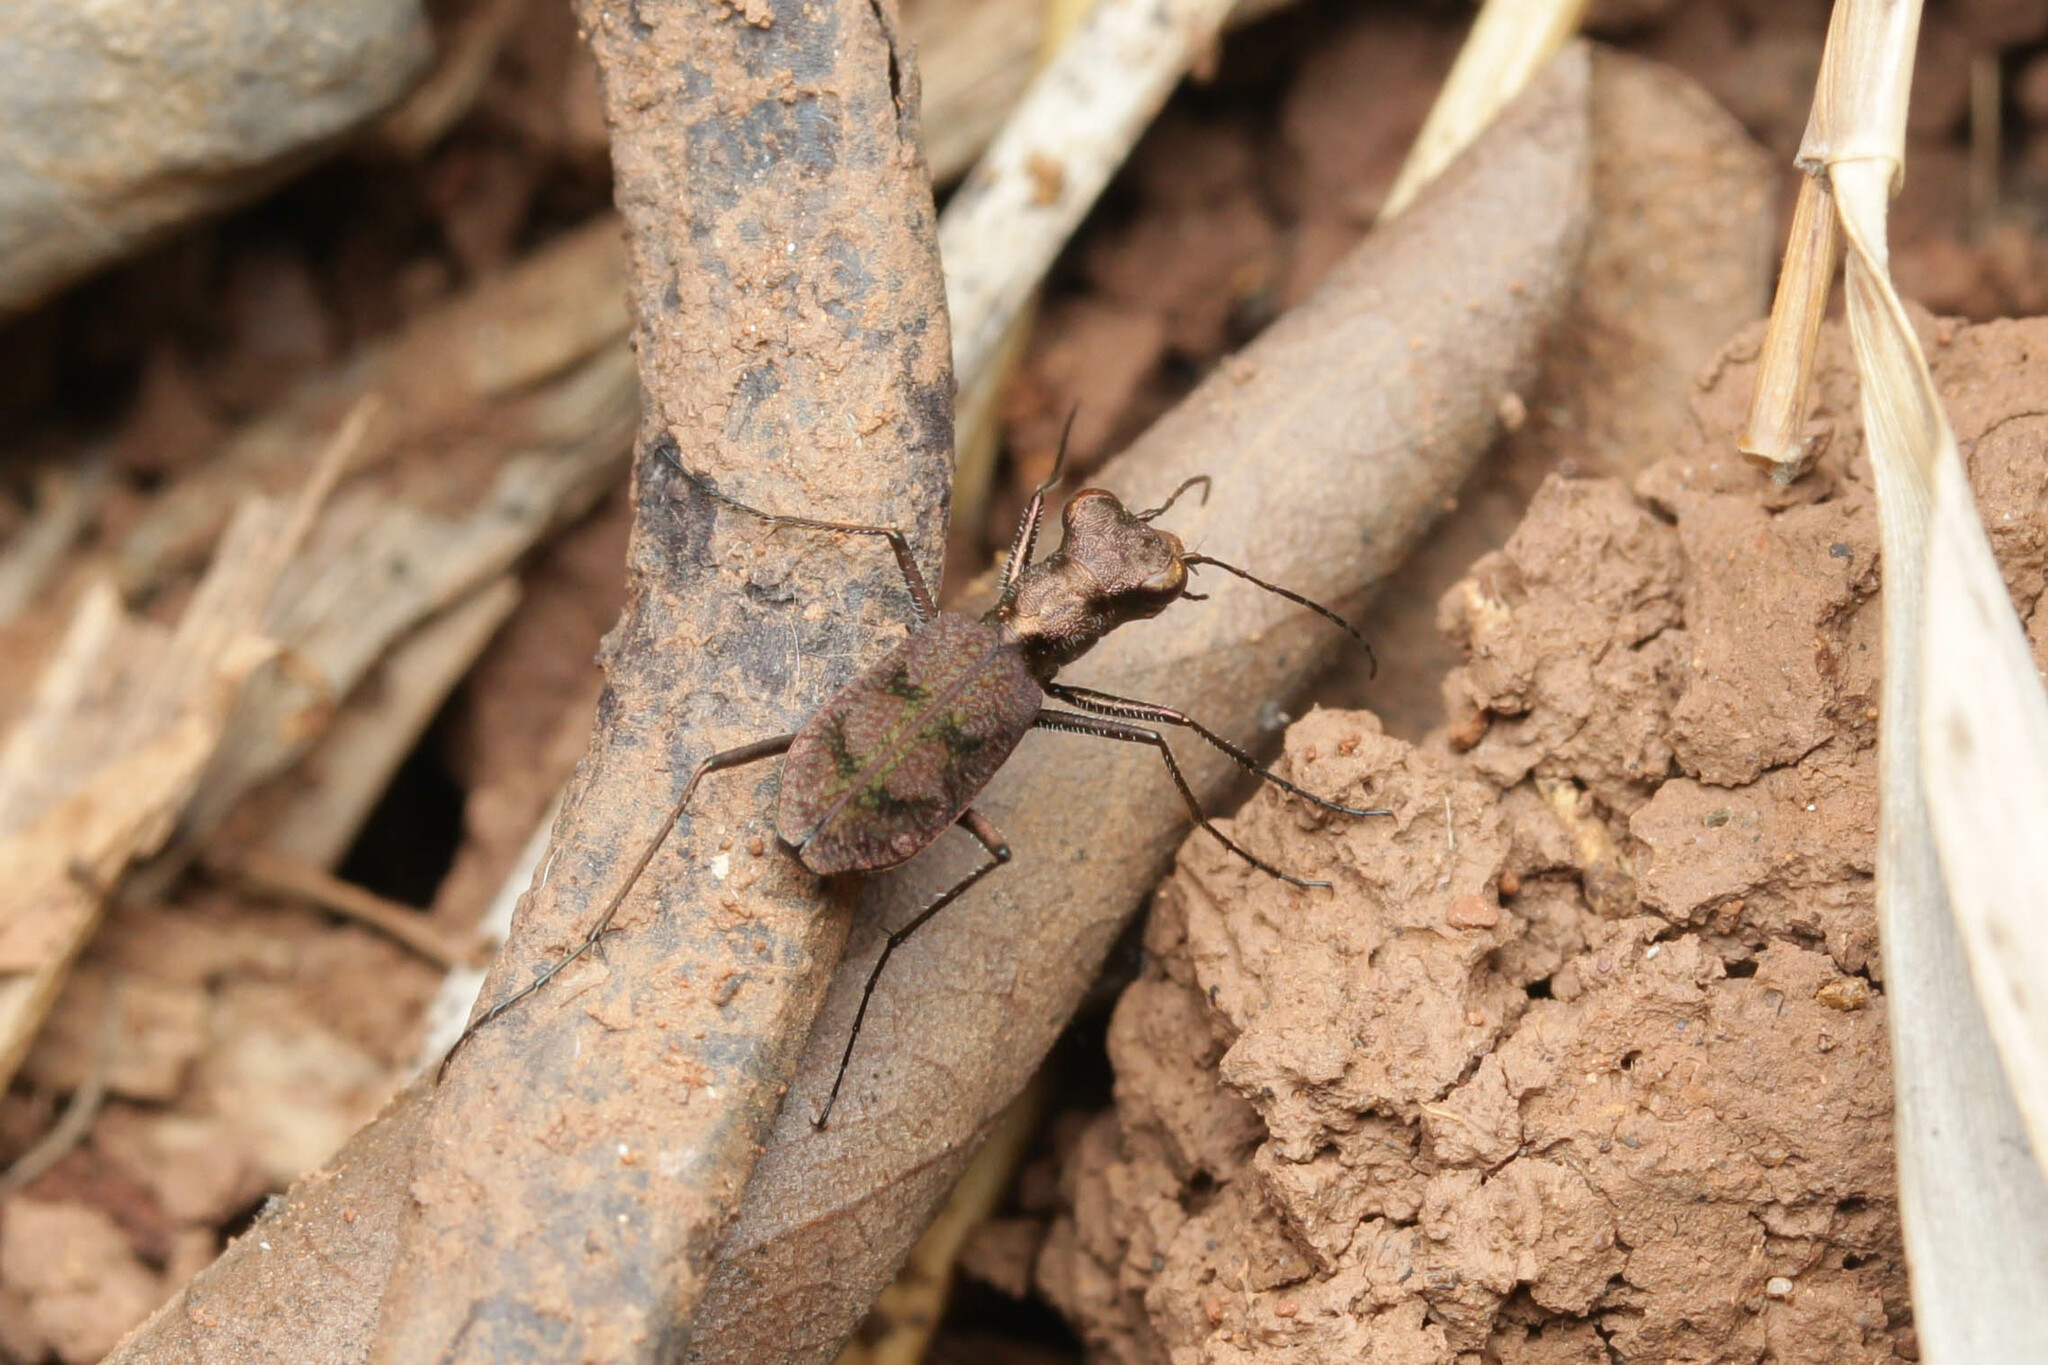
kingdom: Animalia
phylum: Arthropoda
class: Insecta
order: Coleoptera
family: Carabidae
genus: Cylindera
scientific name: Cylindera delavayi
